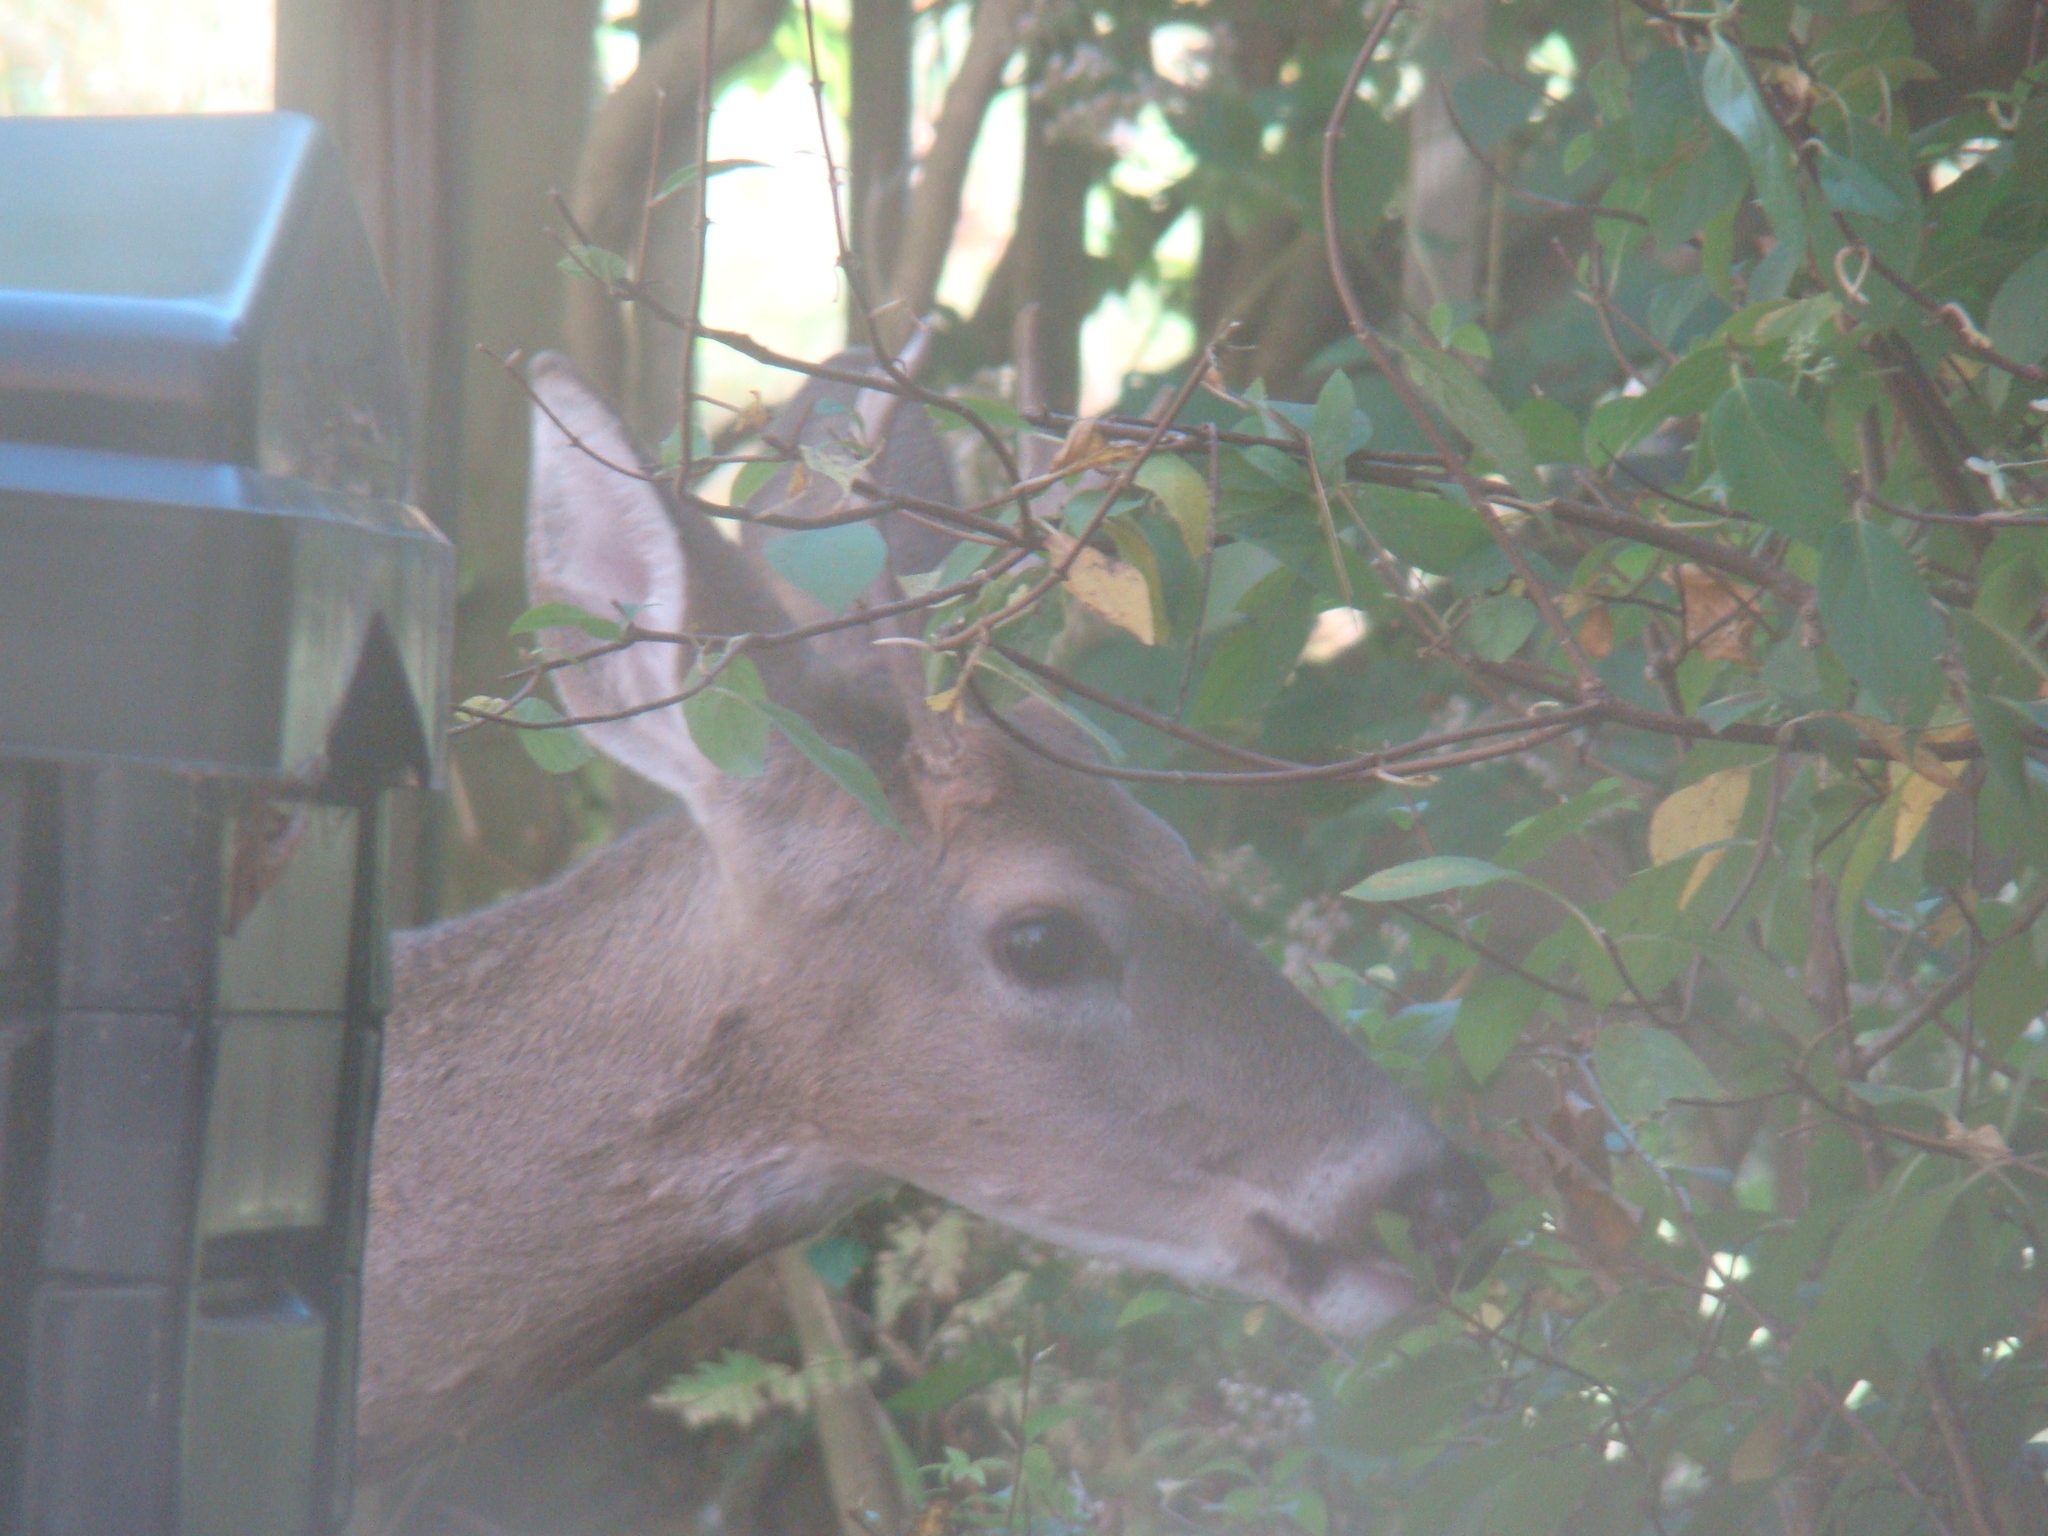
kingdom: Animalia
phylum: Chordata
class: Mammalia
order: Artiodactyla
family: Cervidae
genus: Odocoileus
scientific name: Odocoileus virginianus
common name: White-tailed deer
